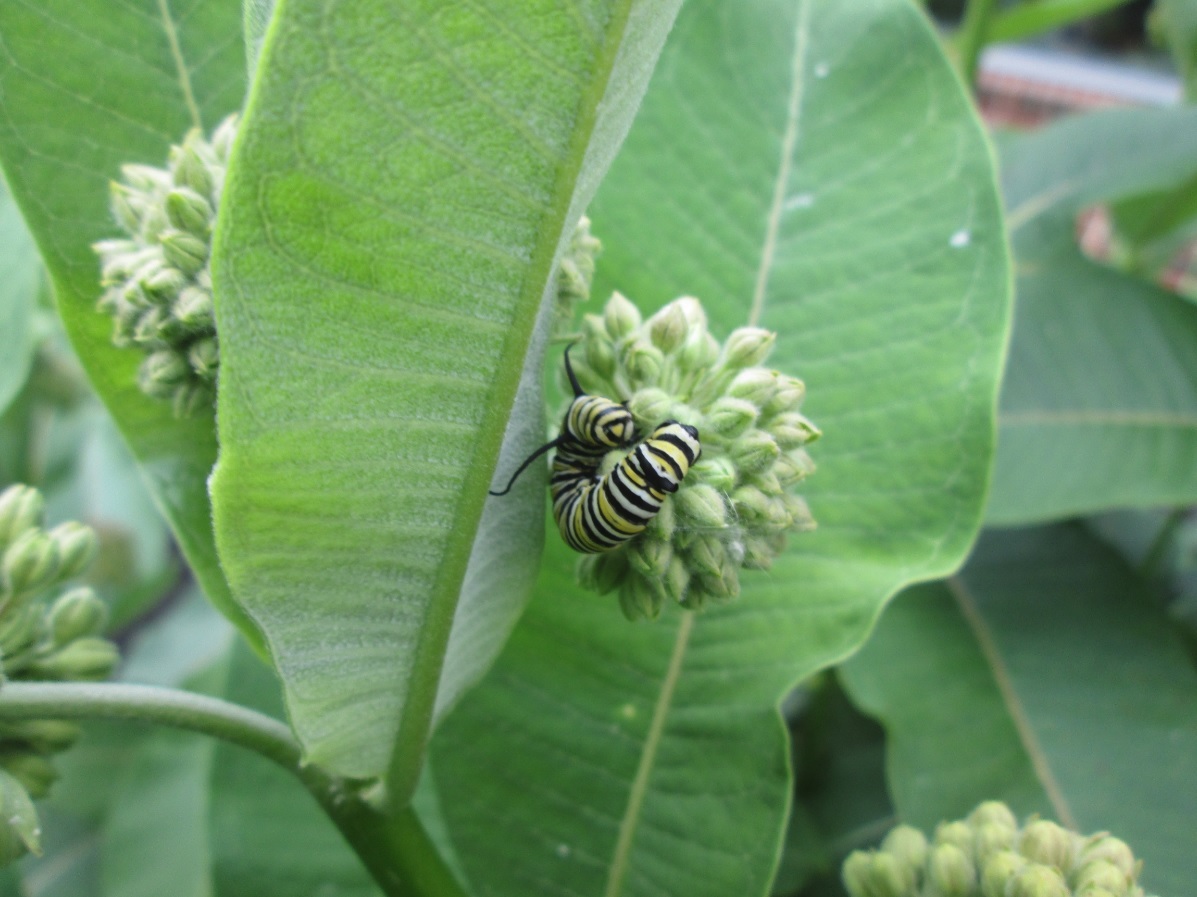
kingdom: Animalia
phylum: Arthropoda
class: Insecta
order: Lepidoptera
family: Nymphalidae
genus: Danaus
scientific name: Danaus plexippus
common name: Monarch
